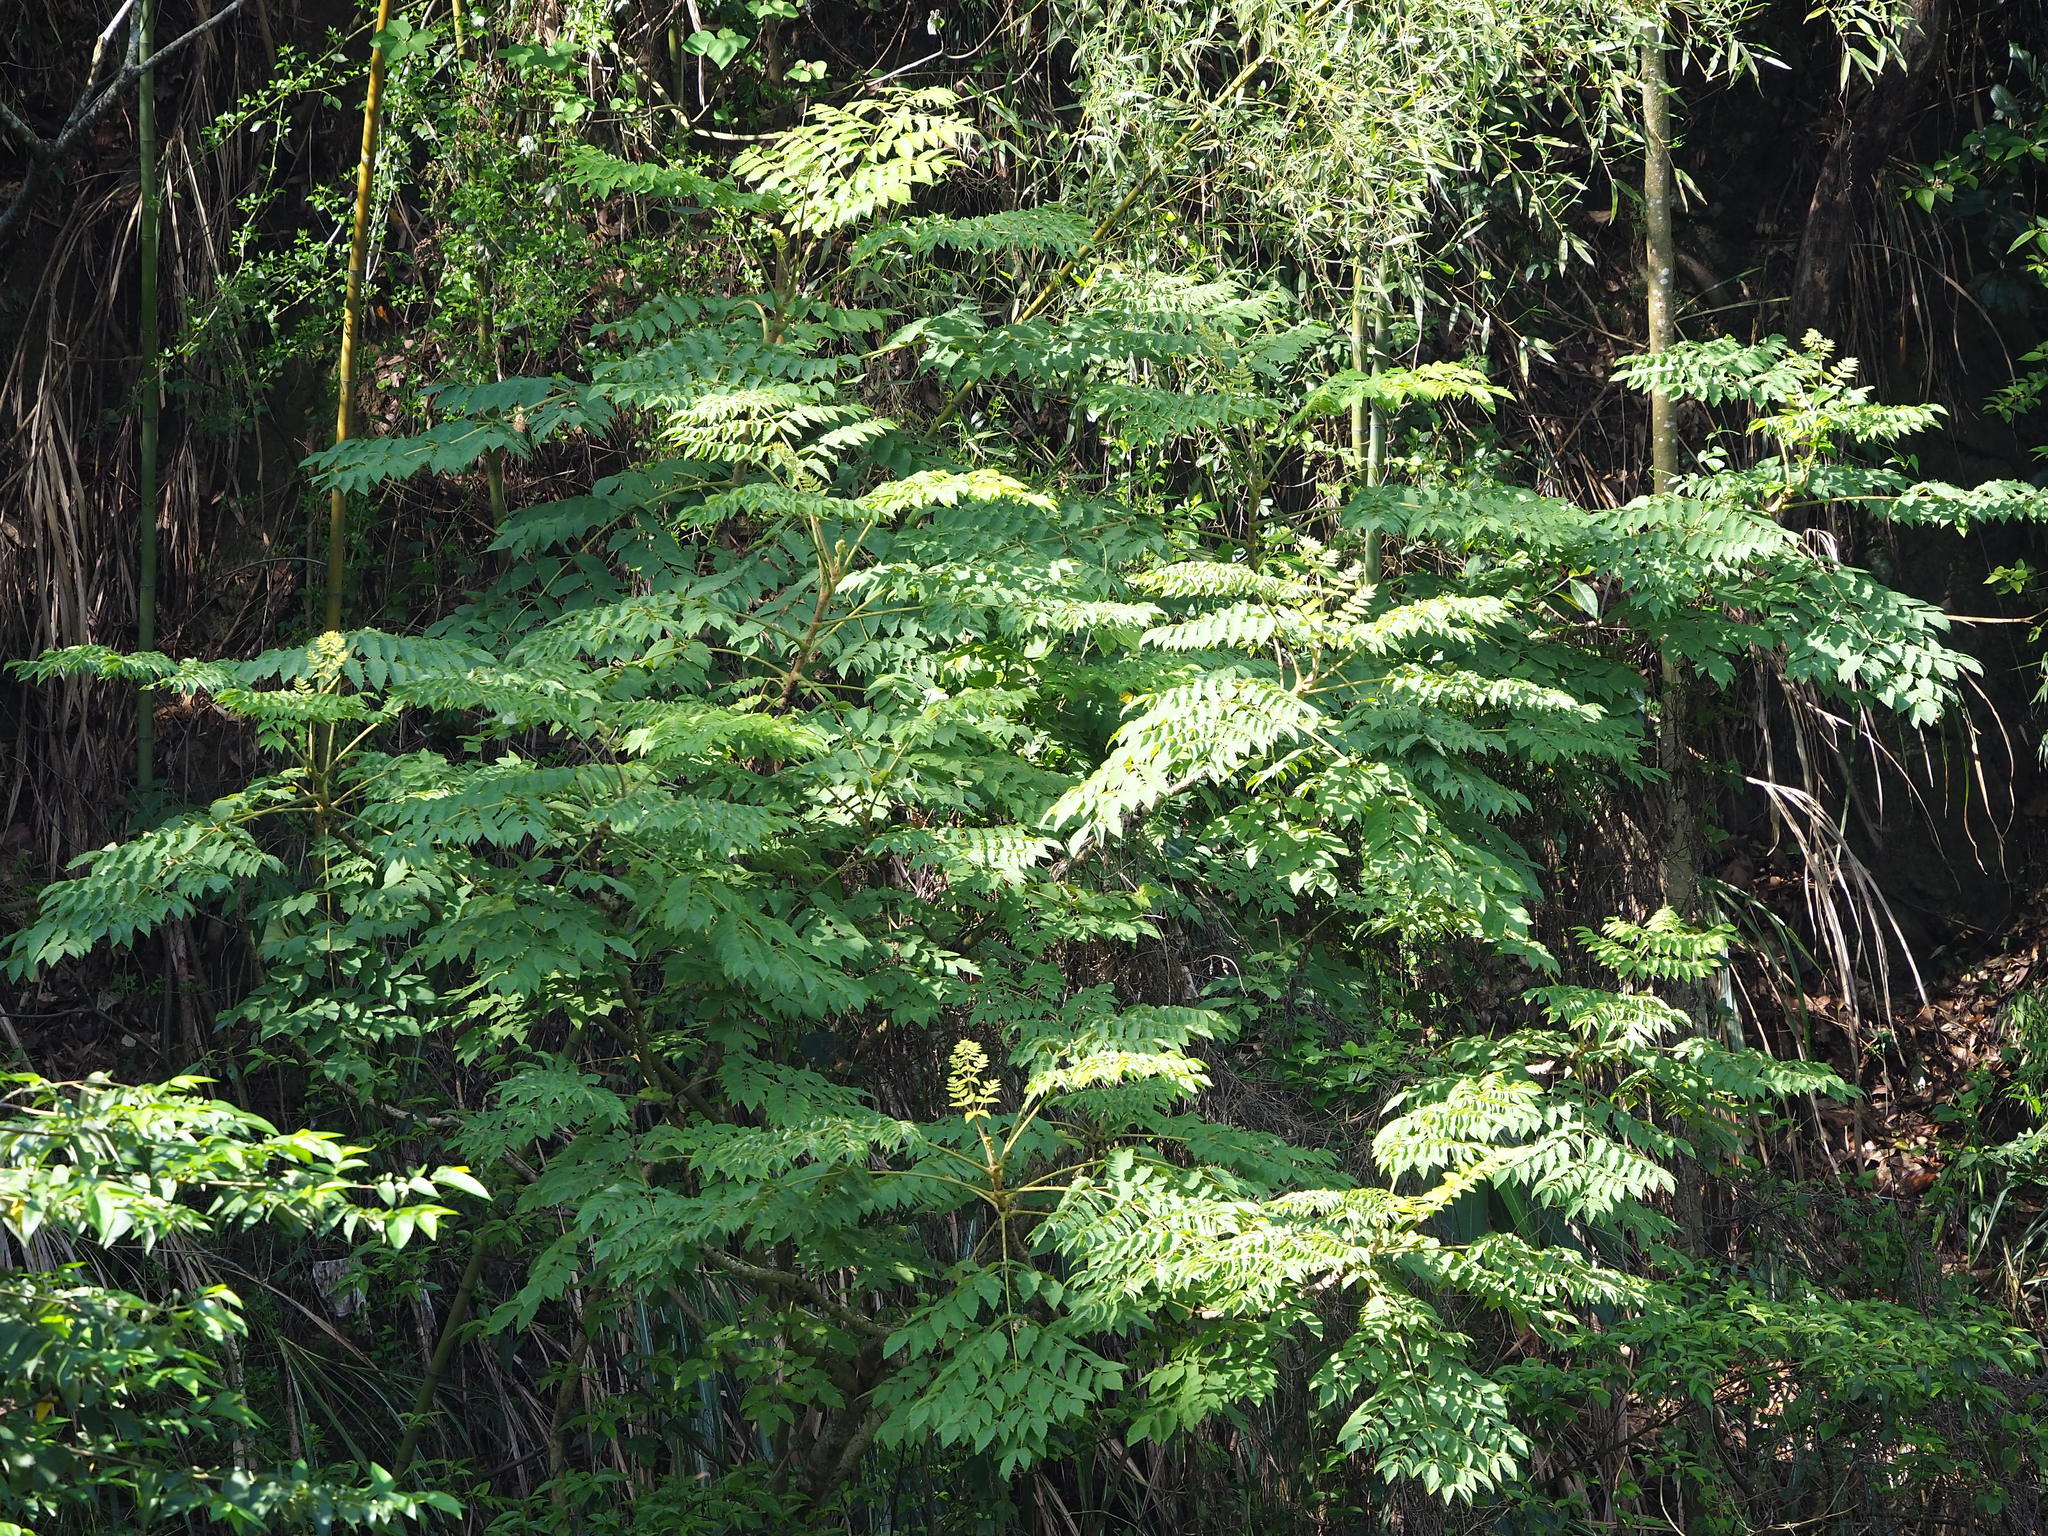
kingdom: Plantae
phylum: Tracheophyta
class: Magnoliopsida
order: Sapindales
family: Sapindaceae
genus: Koelreuteria
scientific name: Koelreuteria elegans
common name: Chinese flame tree
